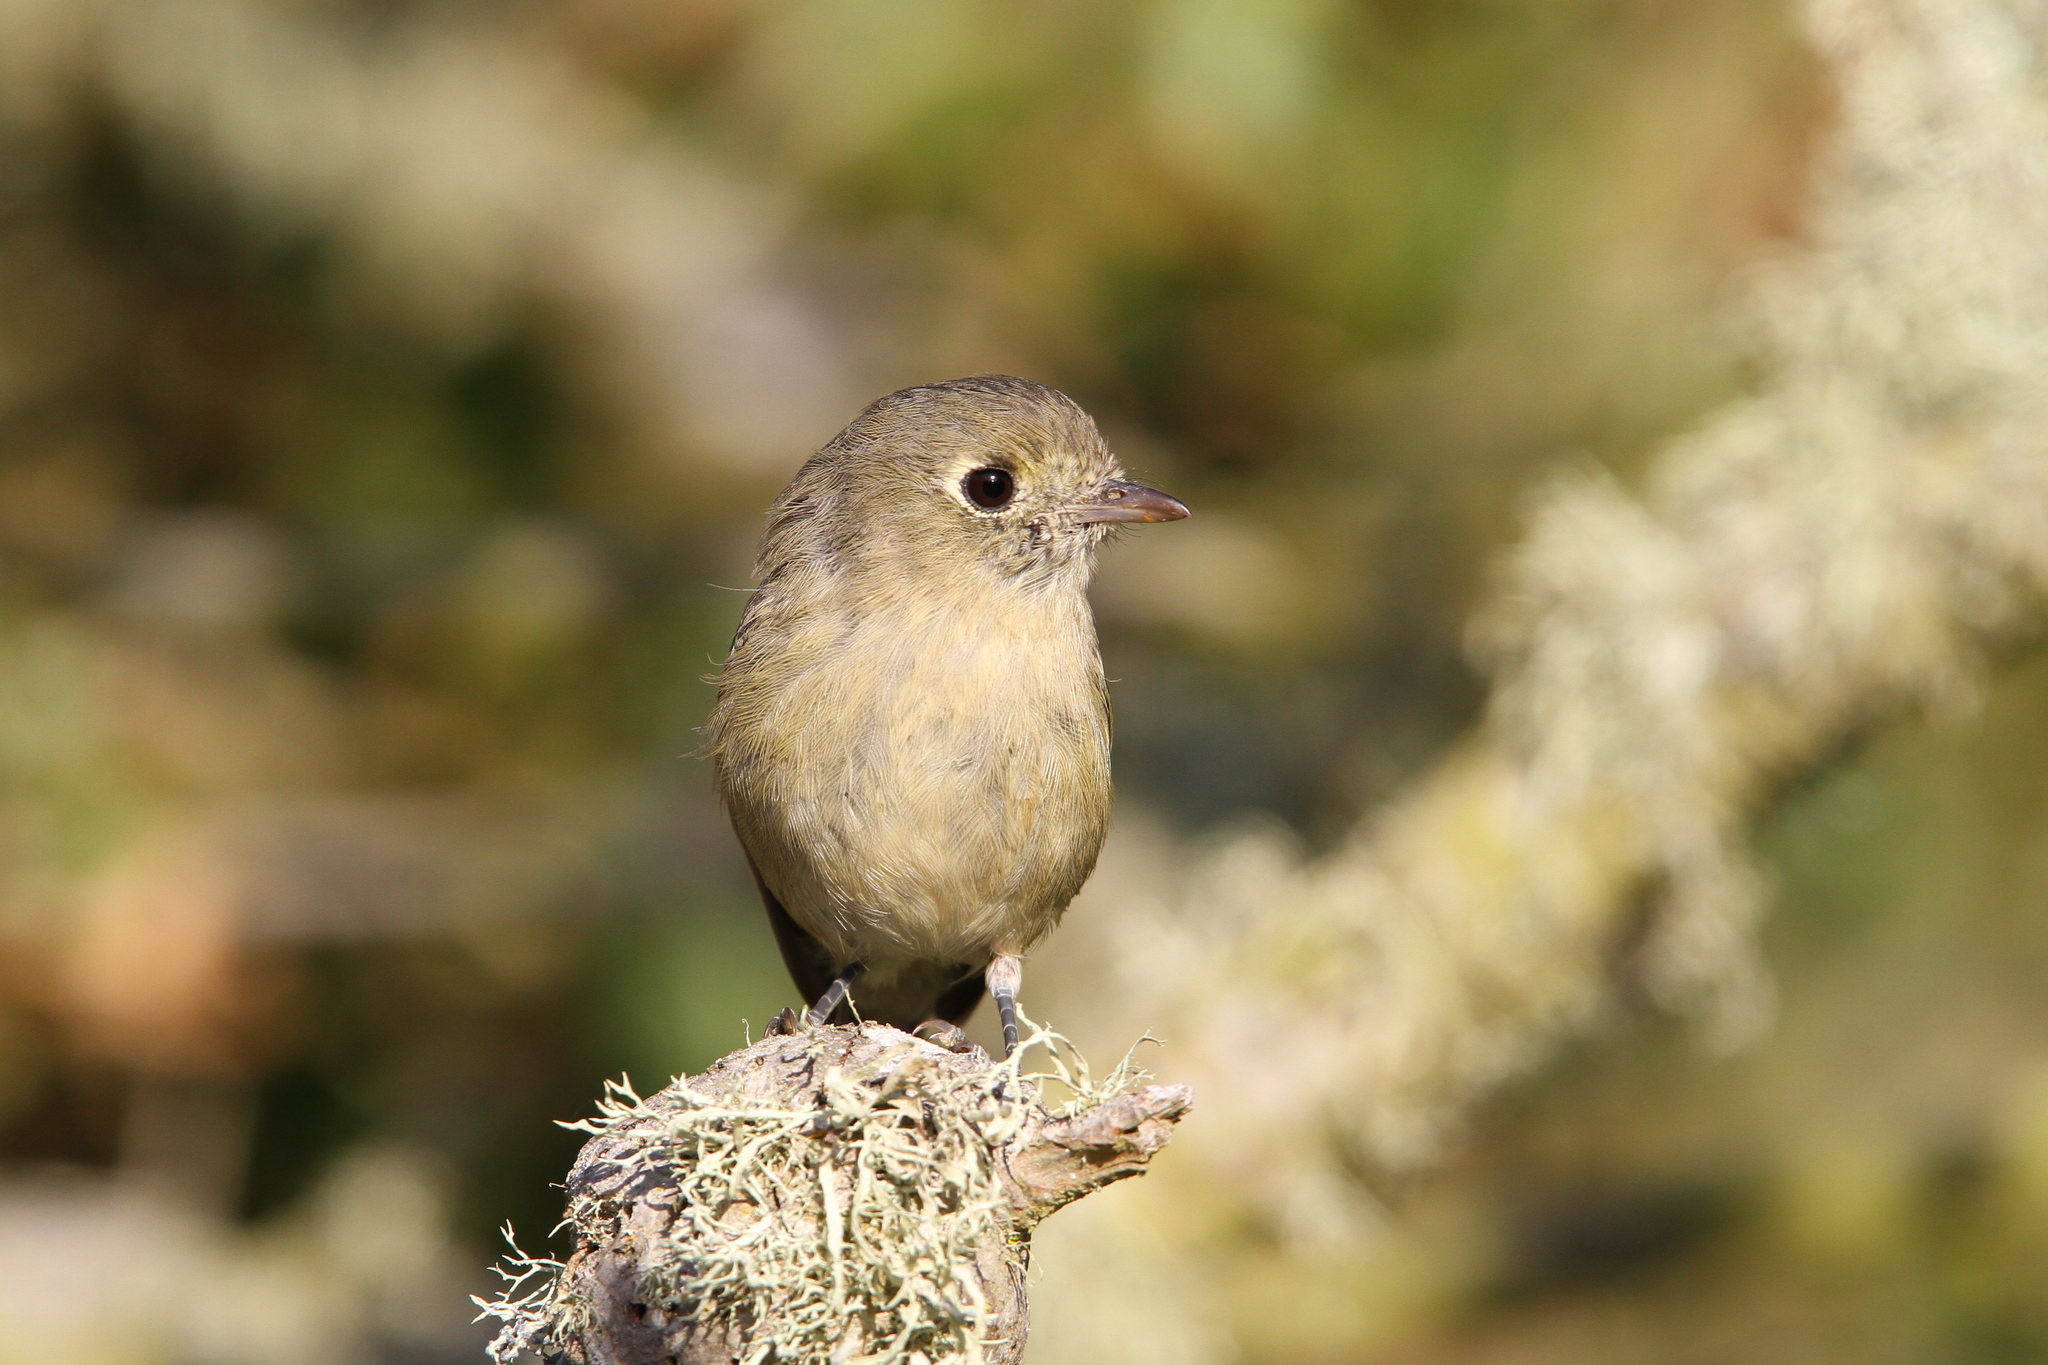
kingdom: Animalia
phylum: Chordata
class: Aves
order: Passeriformes
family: Vireonidae
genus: Vireo
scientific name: Vireo huttoni
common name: Hutton's vireo
